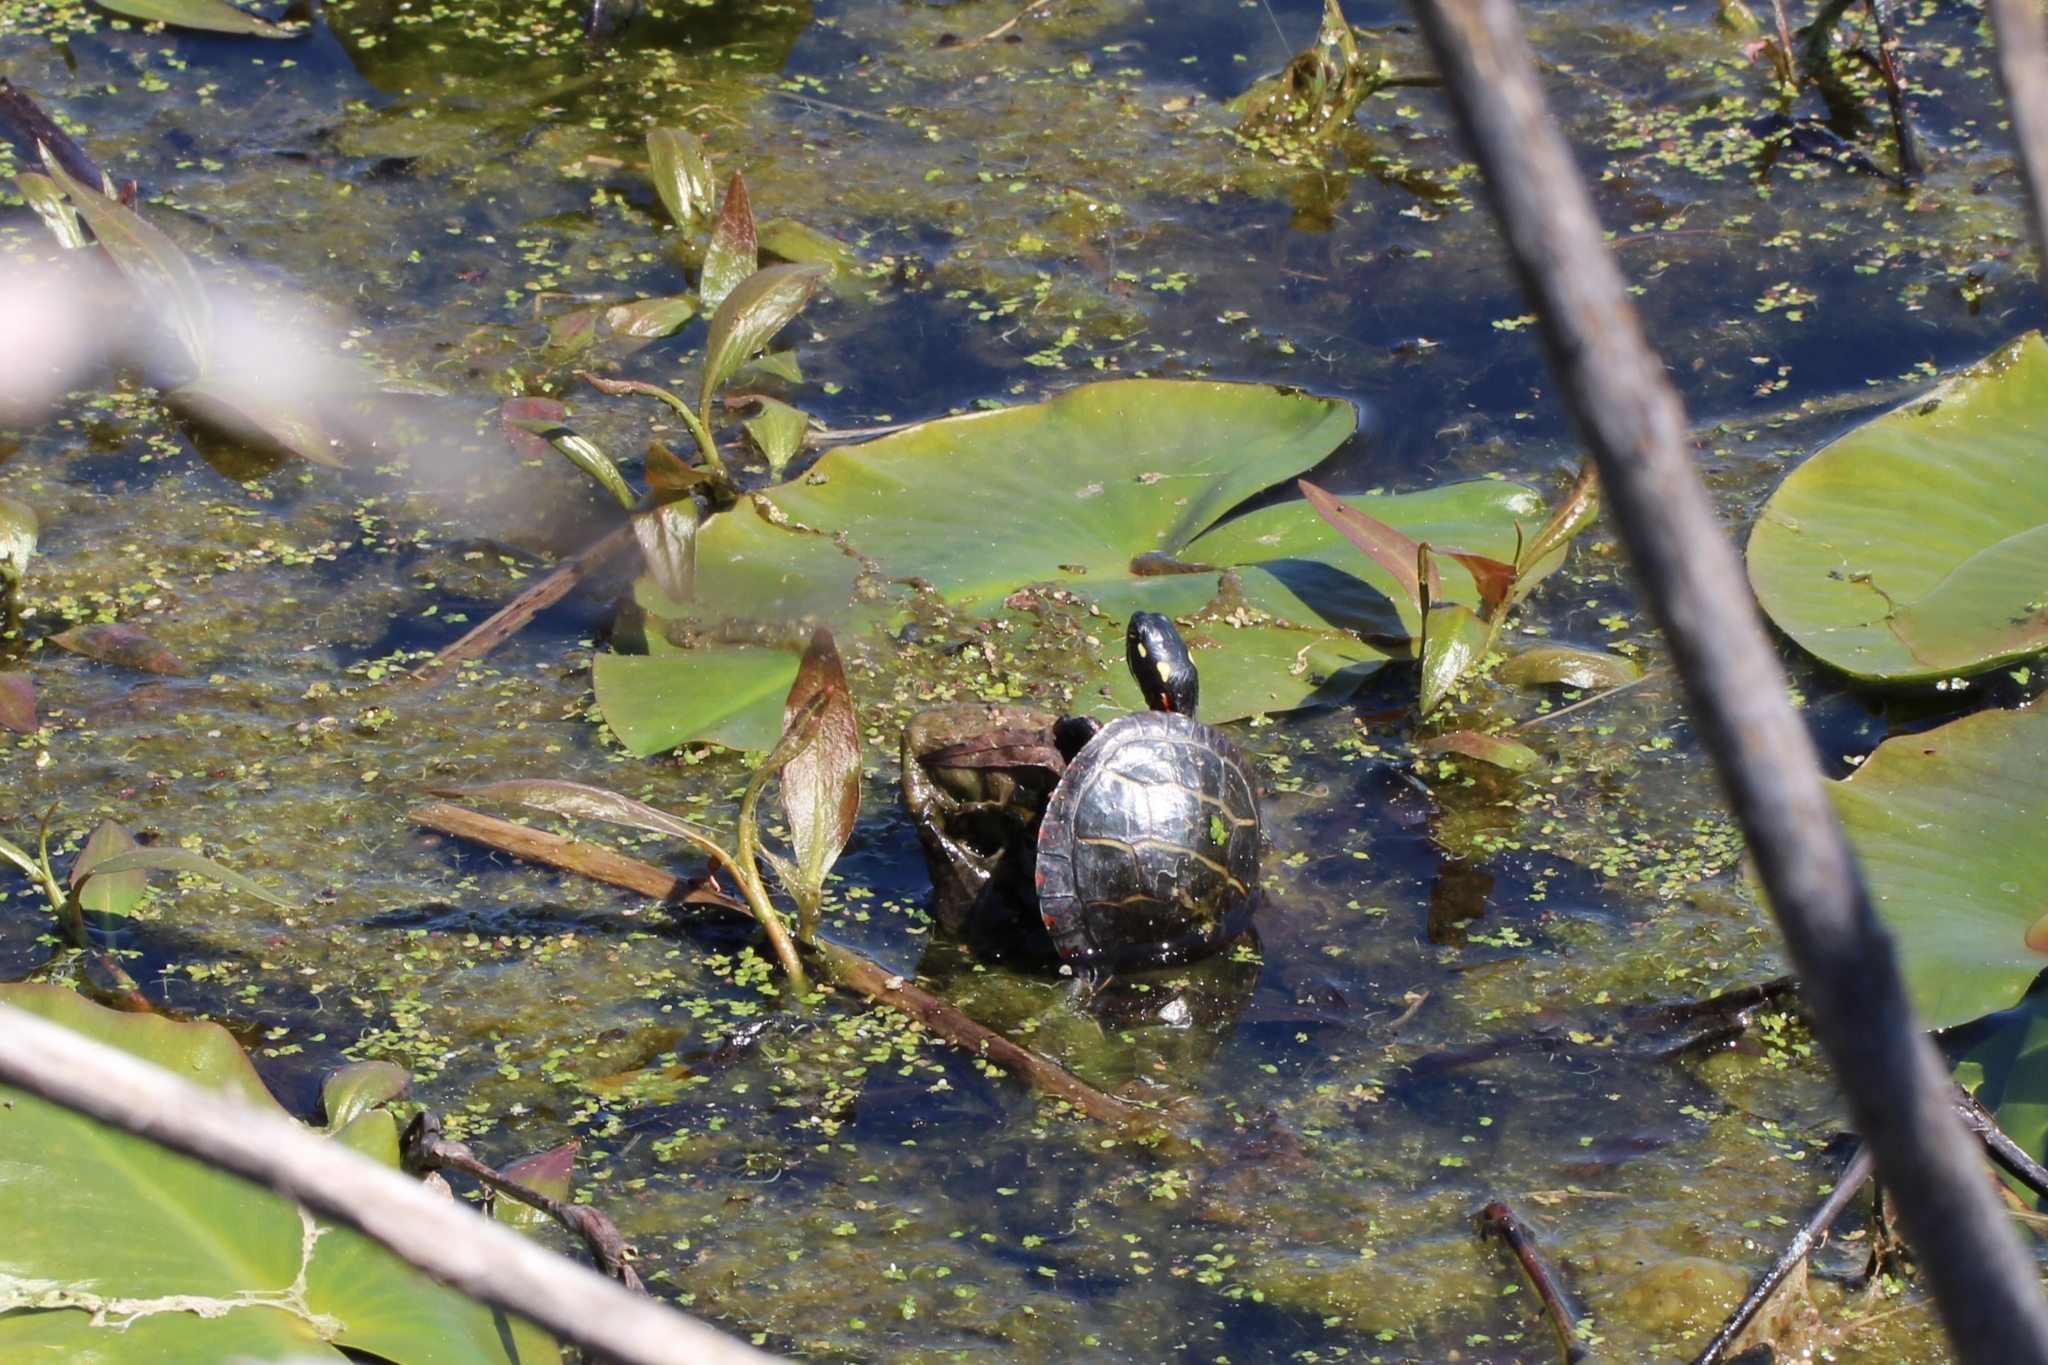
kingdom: Animalia
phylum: Chordata
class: Testudines
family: Emydidae
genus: Chrysemys
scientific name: Chrysemys picta
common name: Painted turtle
